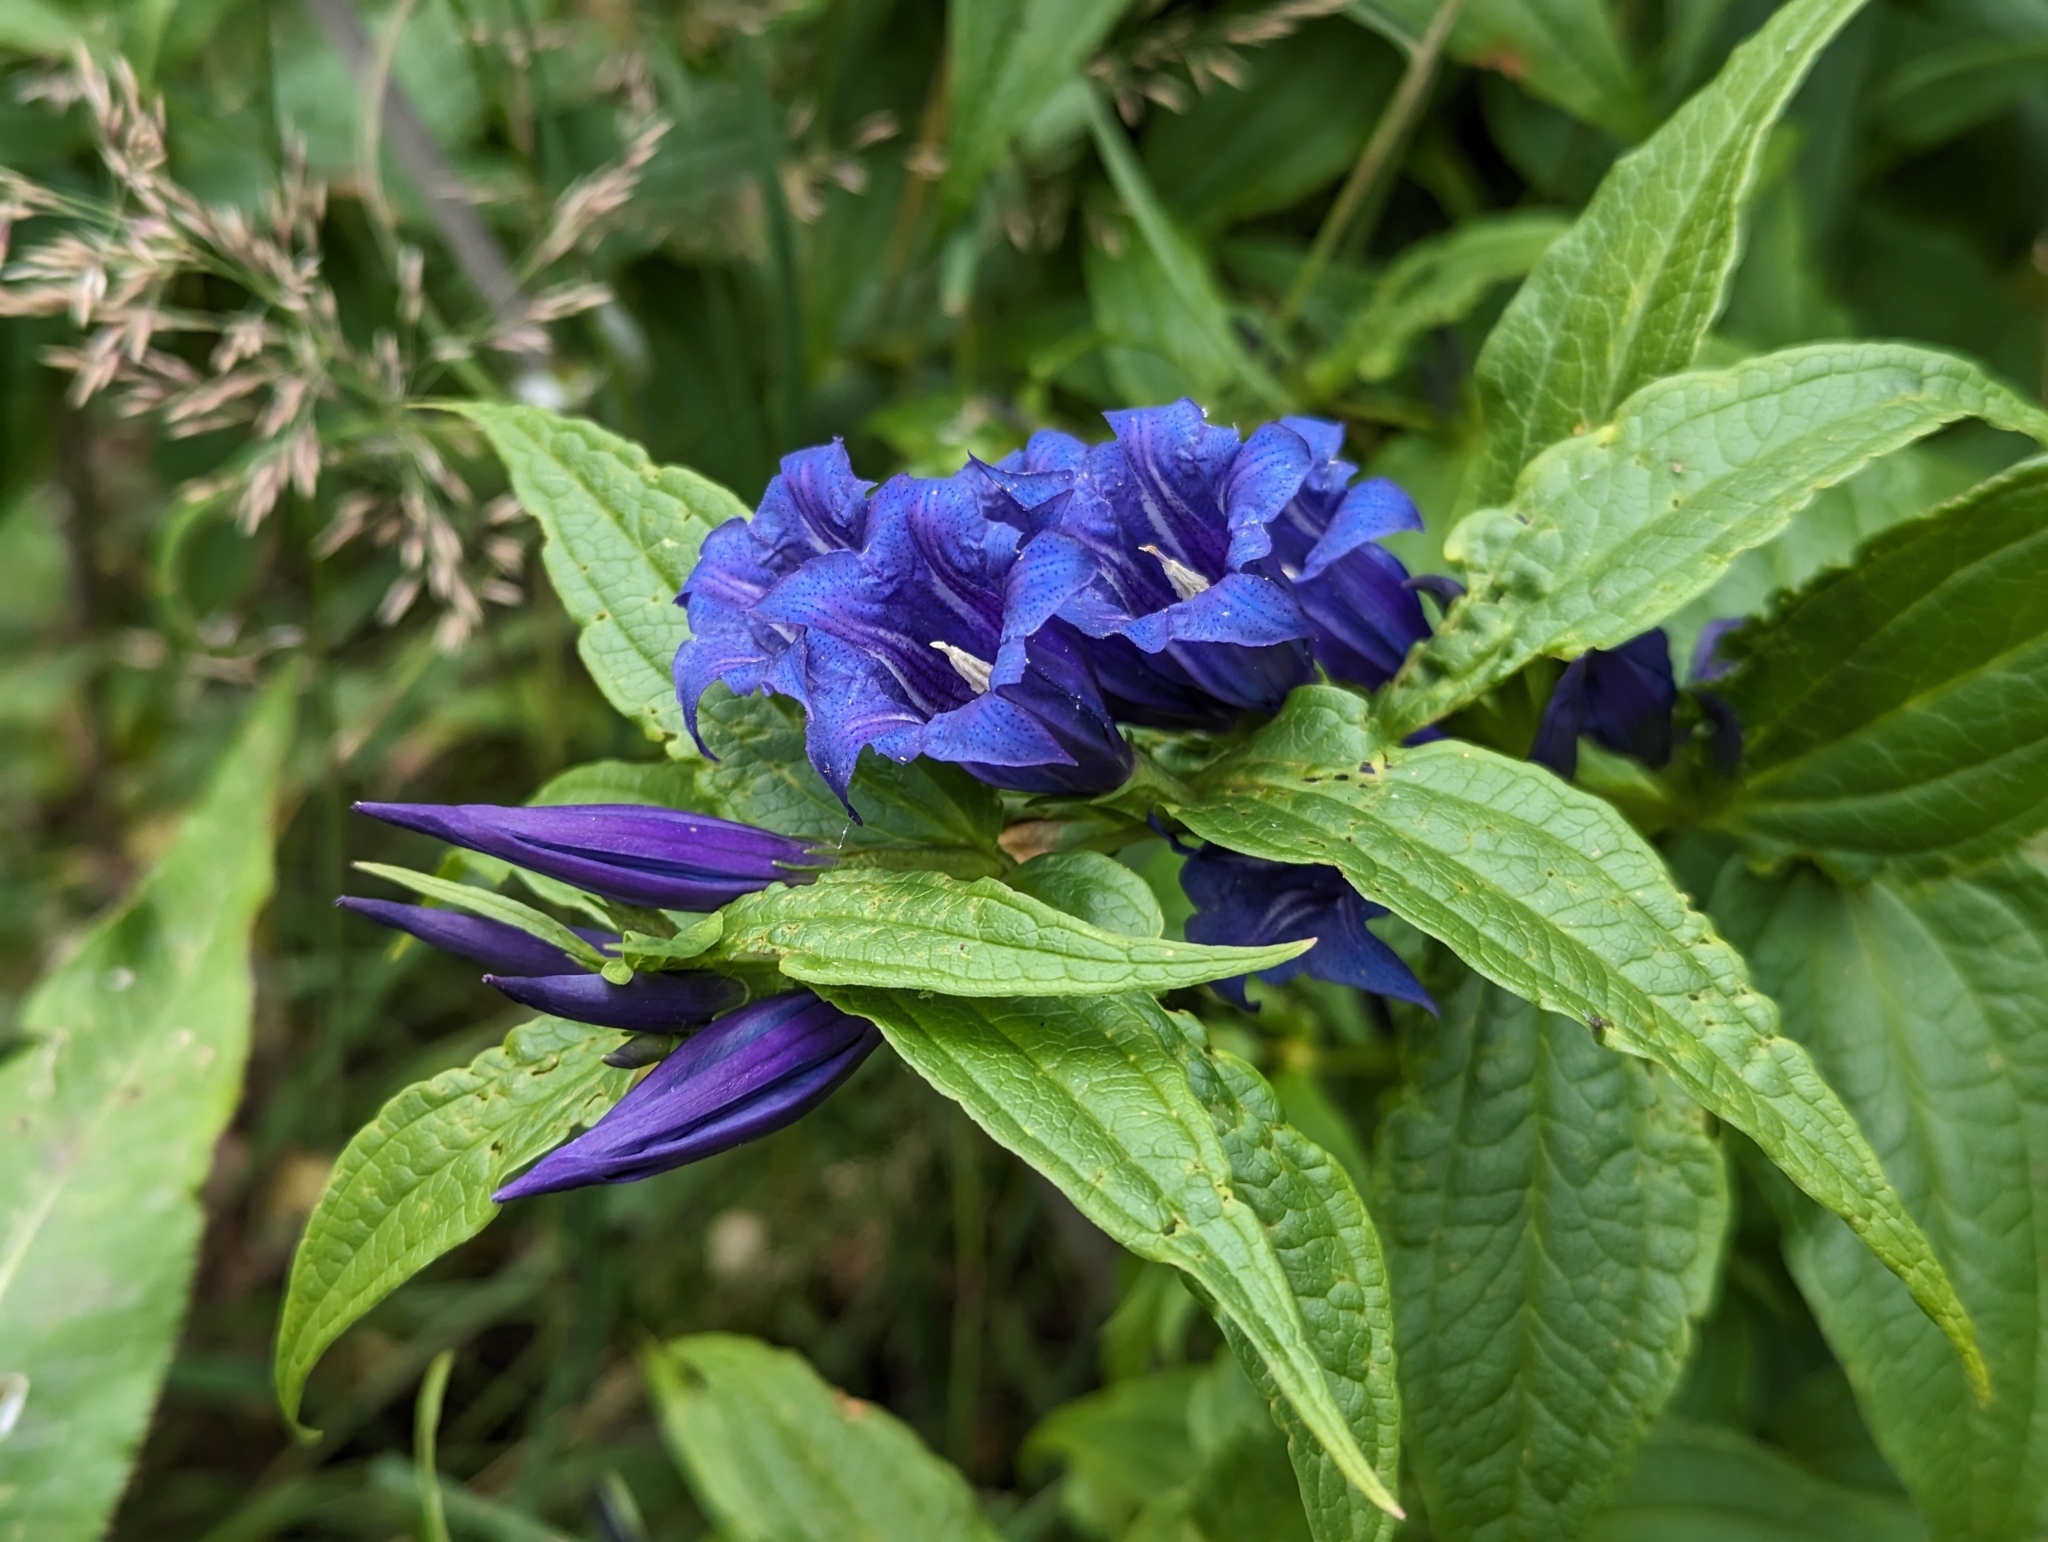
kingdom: Plantae
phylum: Tracheophyta
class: Magnoliopsida
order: Gentianales
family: Gentianaceae
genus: Gentiana
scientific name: Gentiana asclepiadea
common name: Willow gentian
